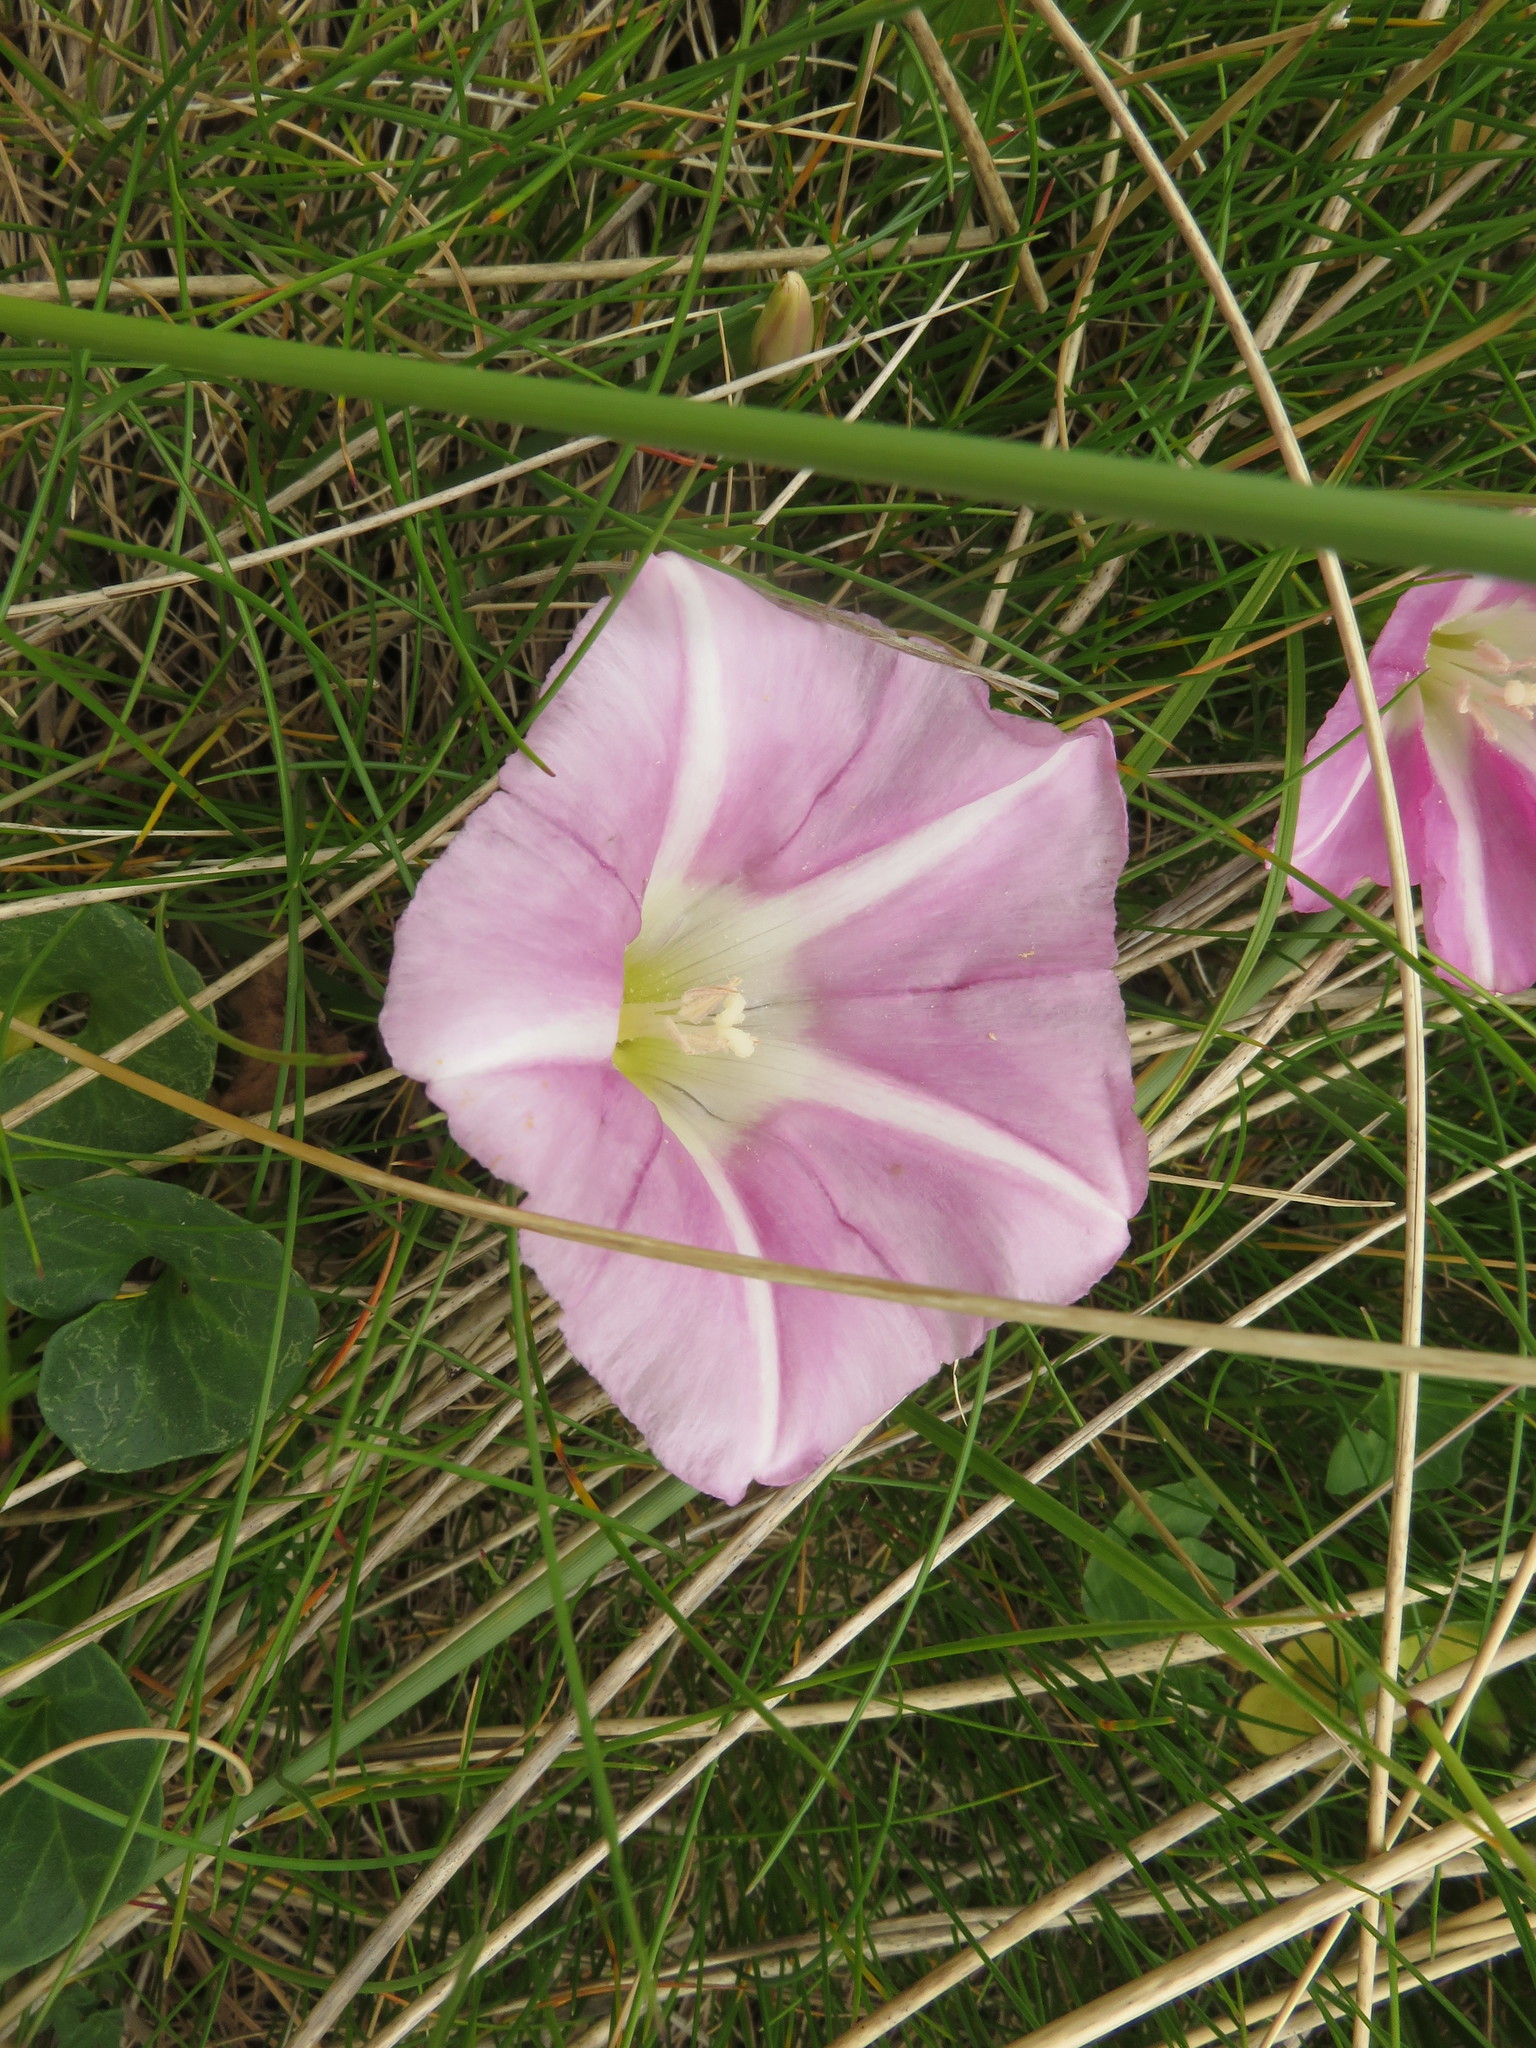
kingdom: Plantae
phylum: Tracheophyta
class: Magnoliopsida
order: Solanales
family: Convolvulaceae
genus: Calystegia
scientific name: Calystegia soldanella
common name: Sea bindweed
